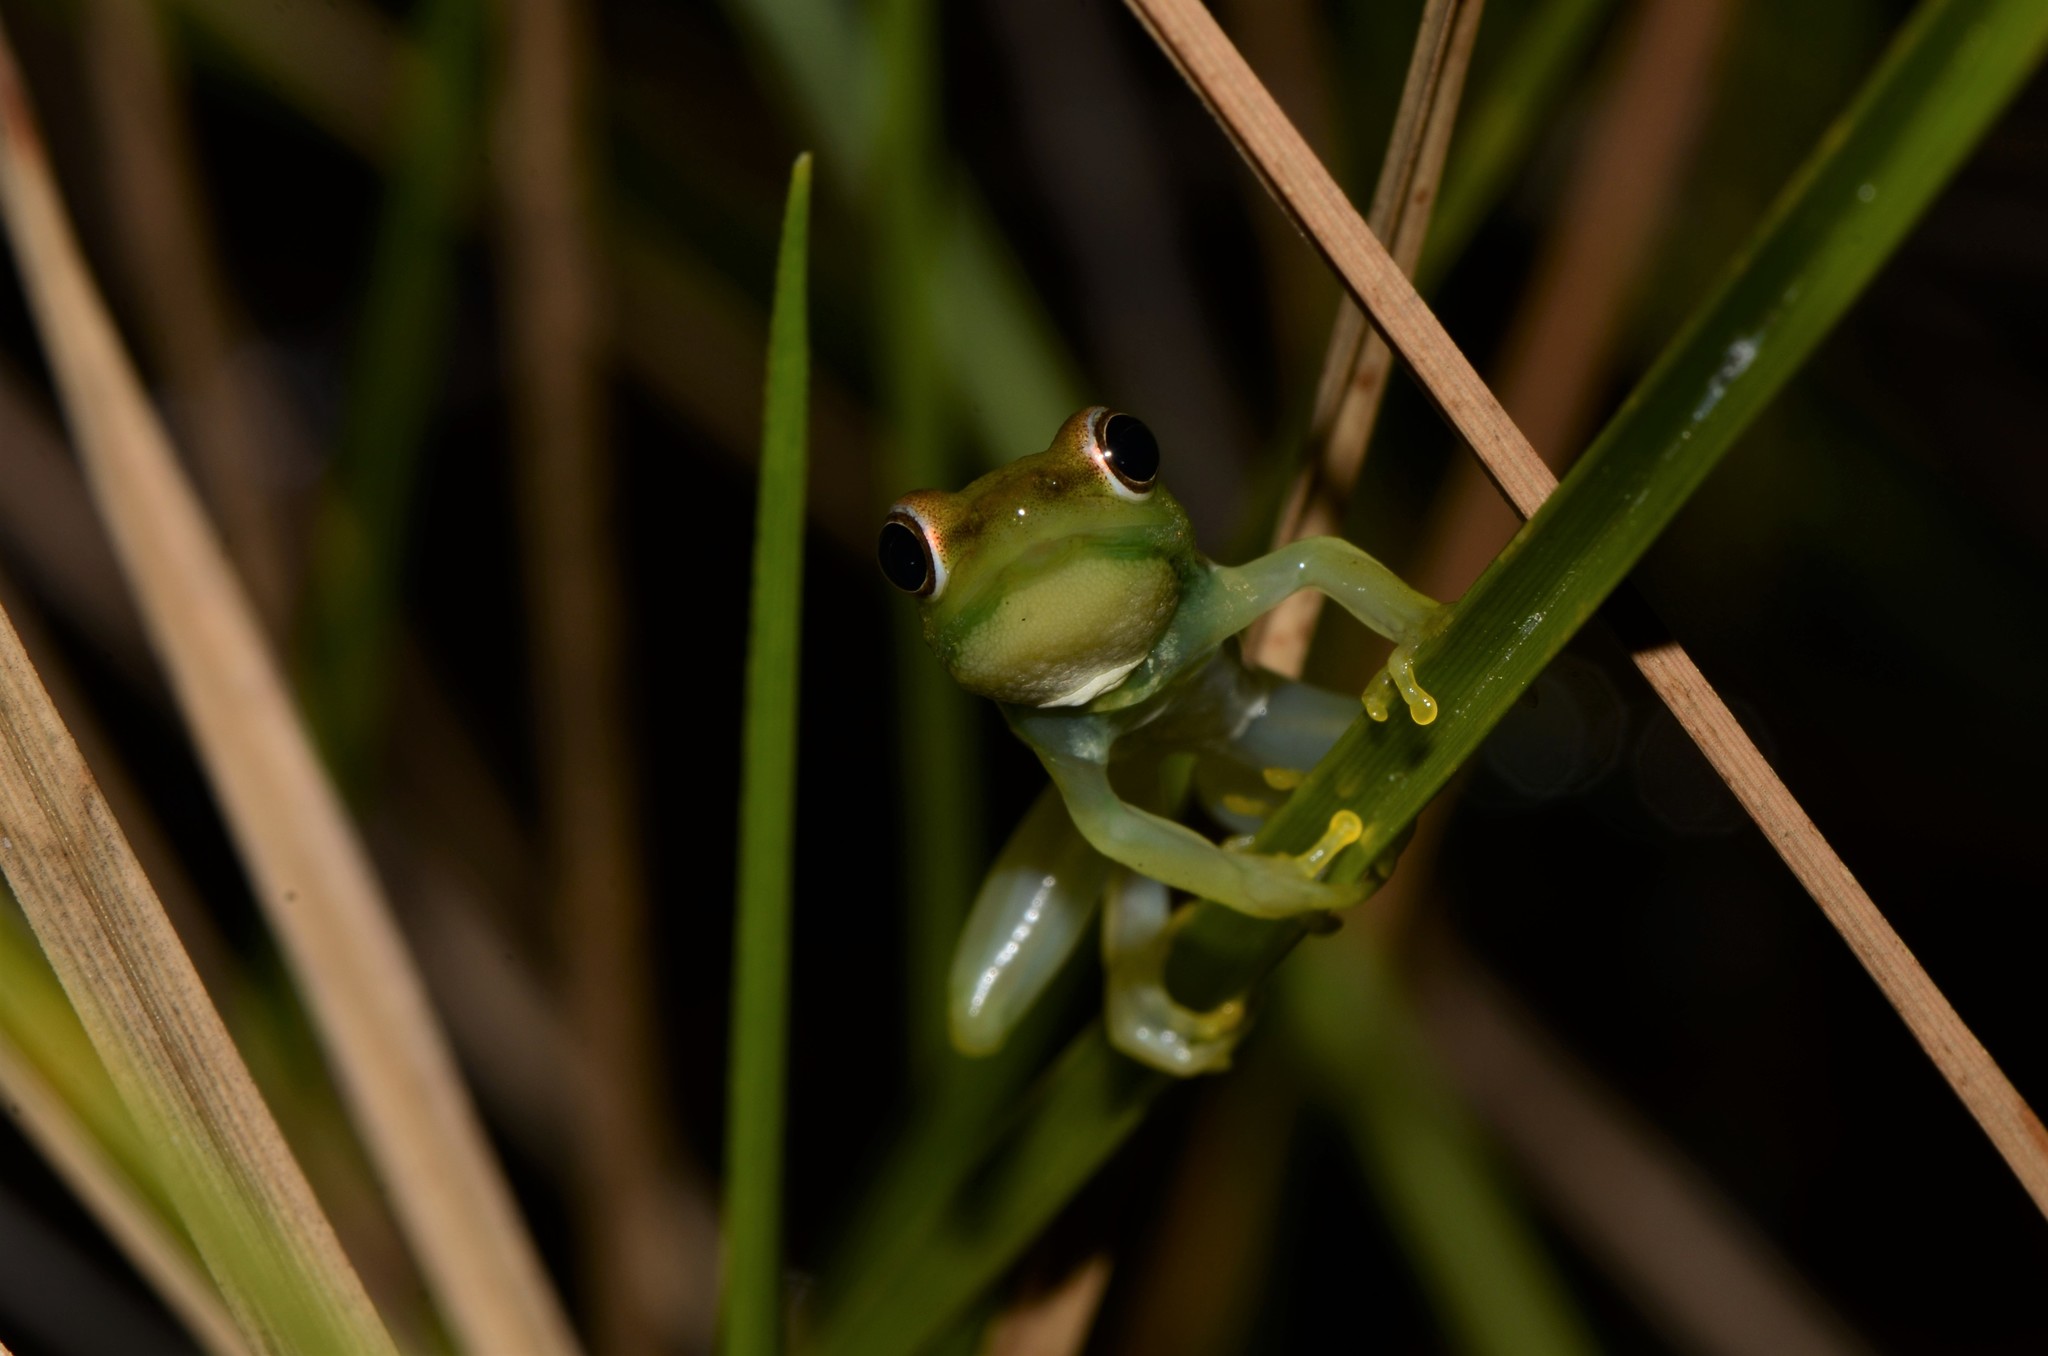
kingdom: Animalia
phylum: Chordata
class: Amphibia
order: Anura
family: Hyperoliidae
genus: Hyperolius
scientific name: Hyperolius microps
